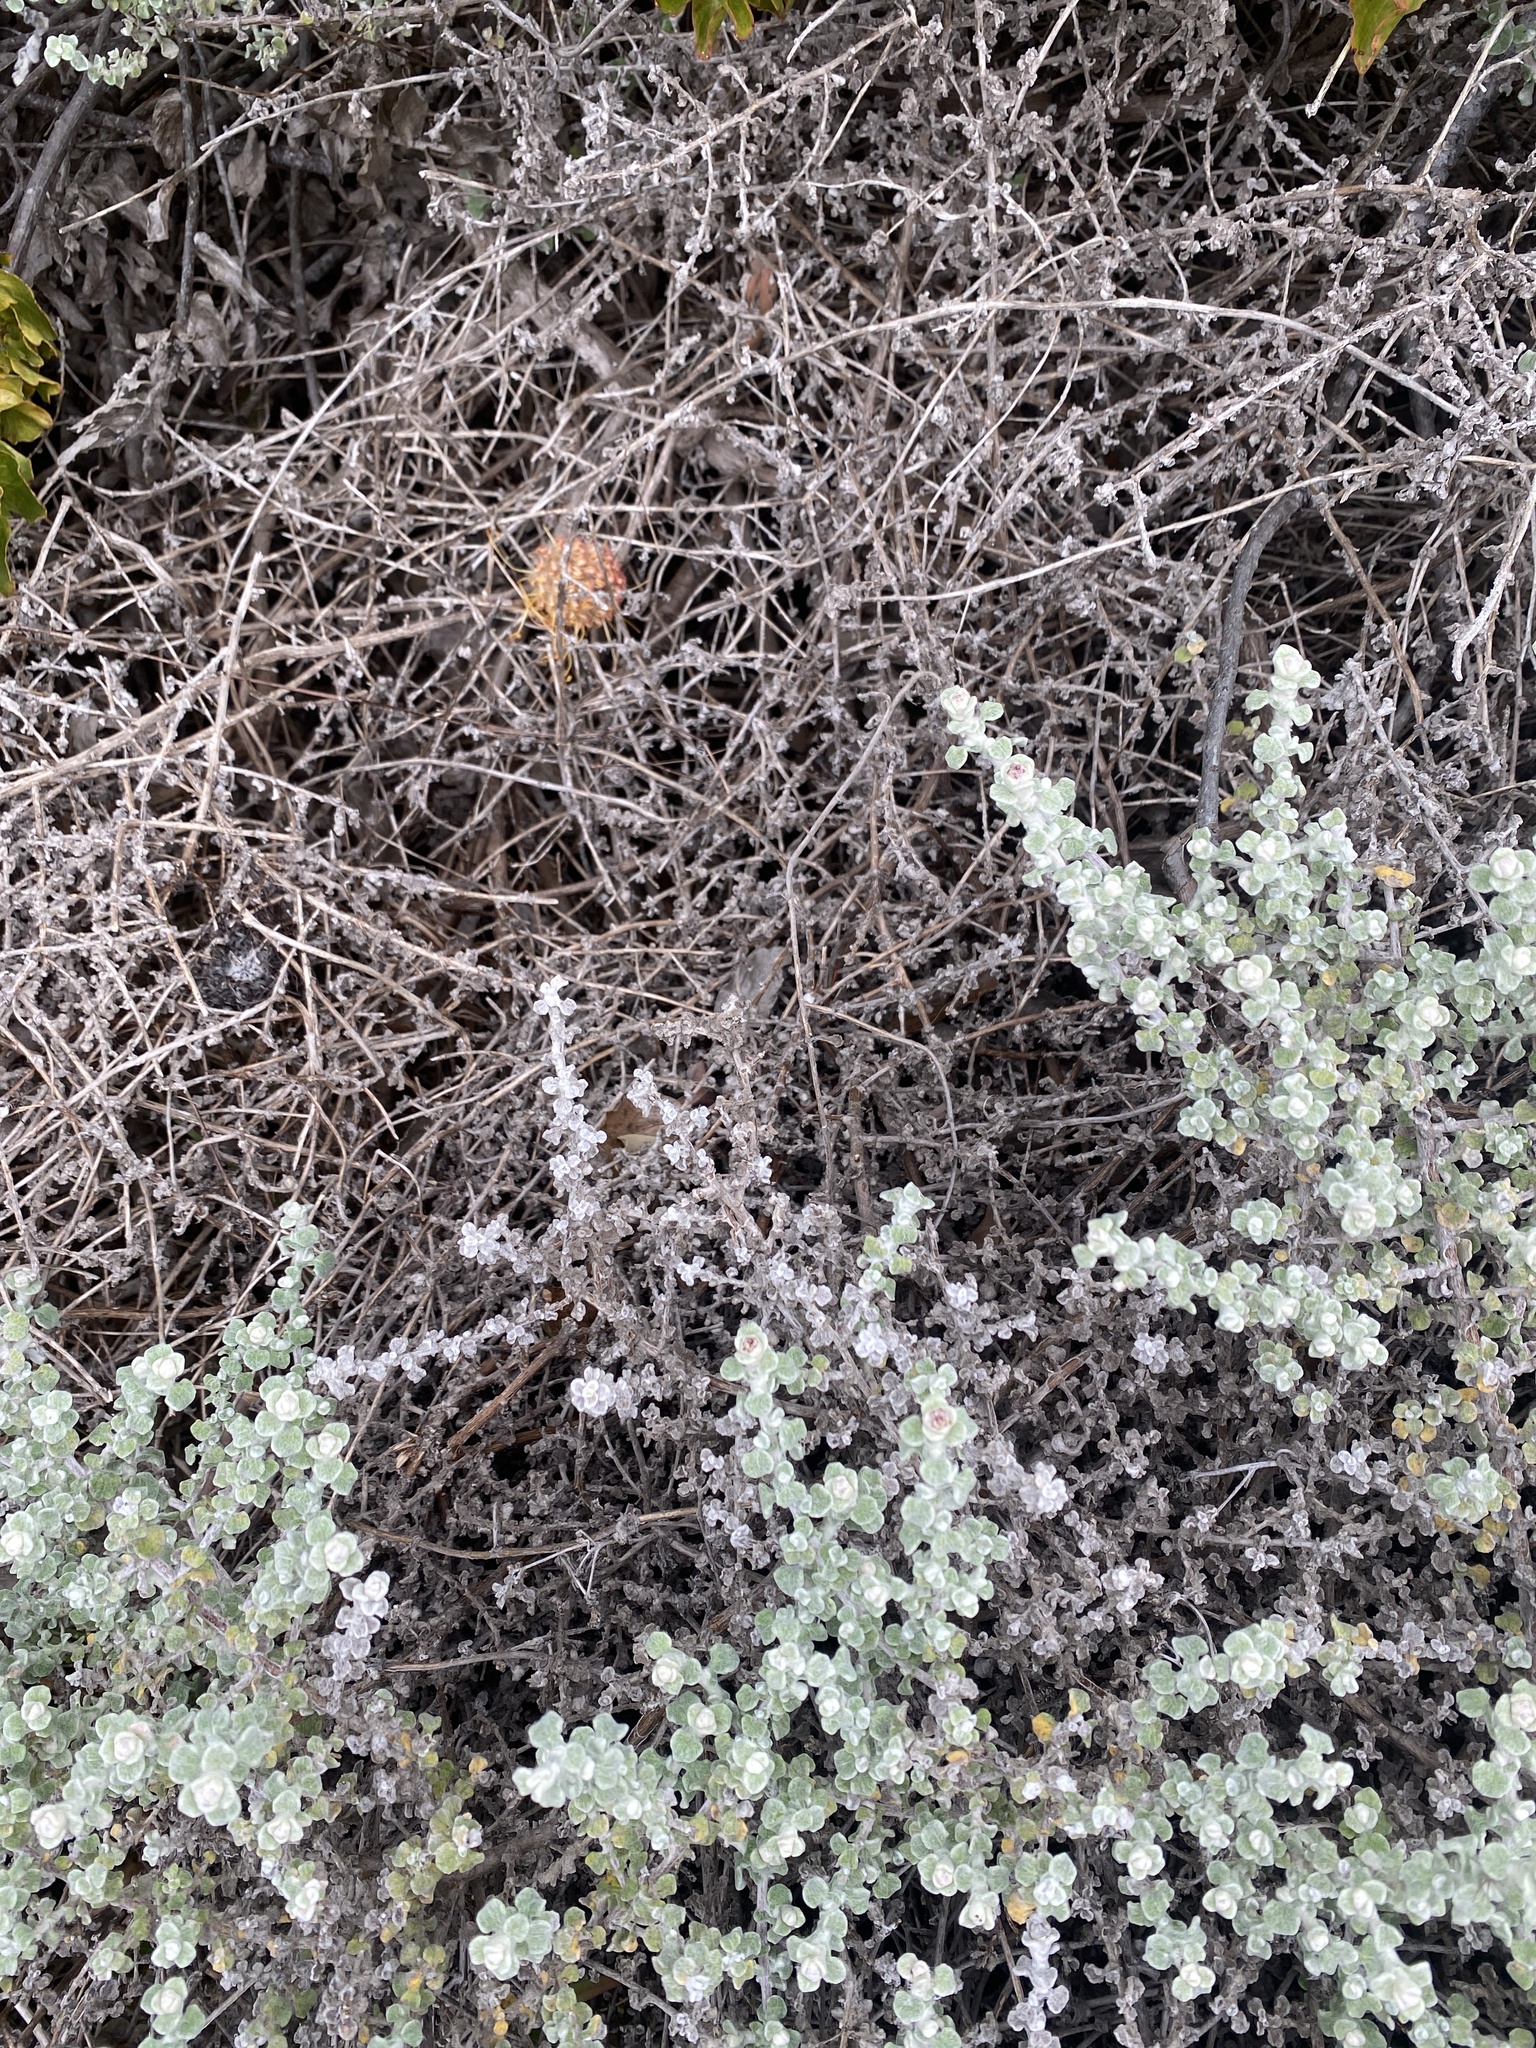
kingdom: Plantae
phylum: Tracheophyta
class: Magnoliopsida
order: Asterales
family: Asteraceae
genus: Helichrysum
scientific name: Helichrysum patulum
